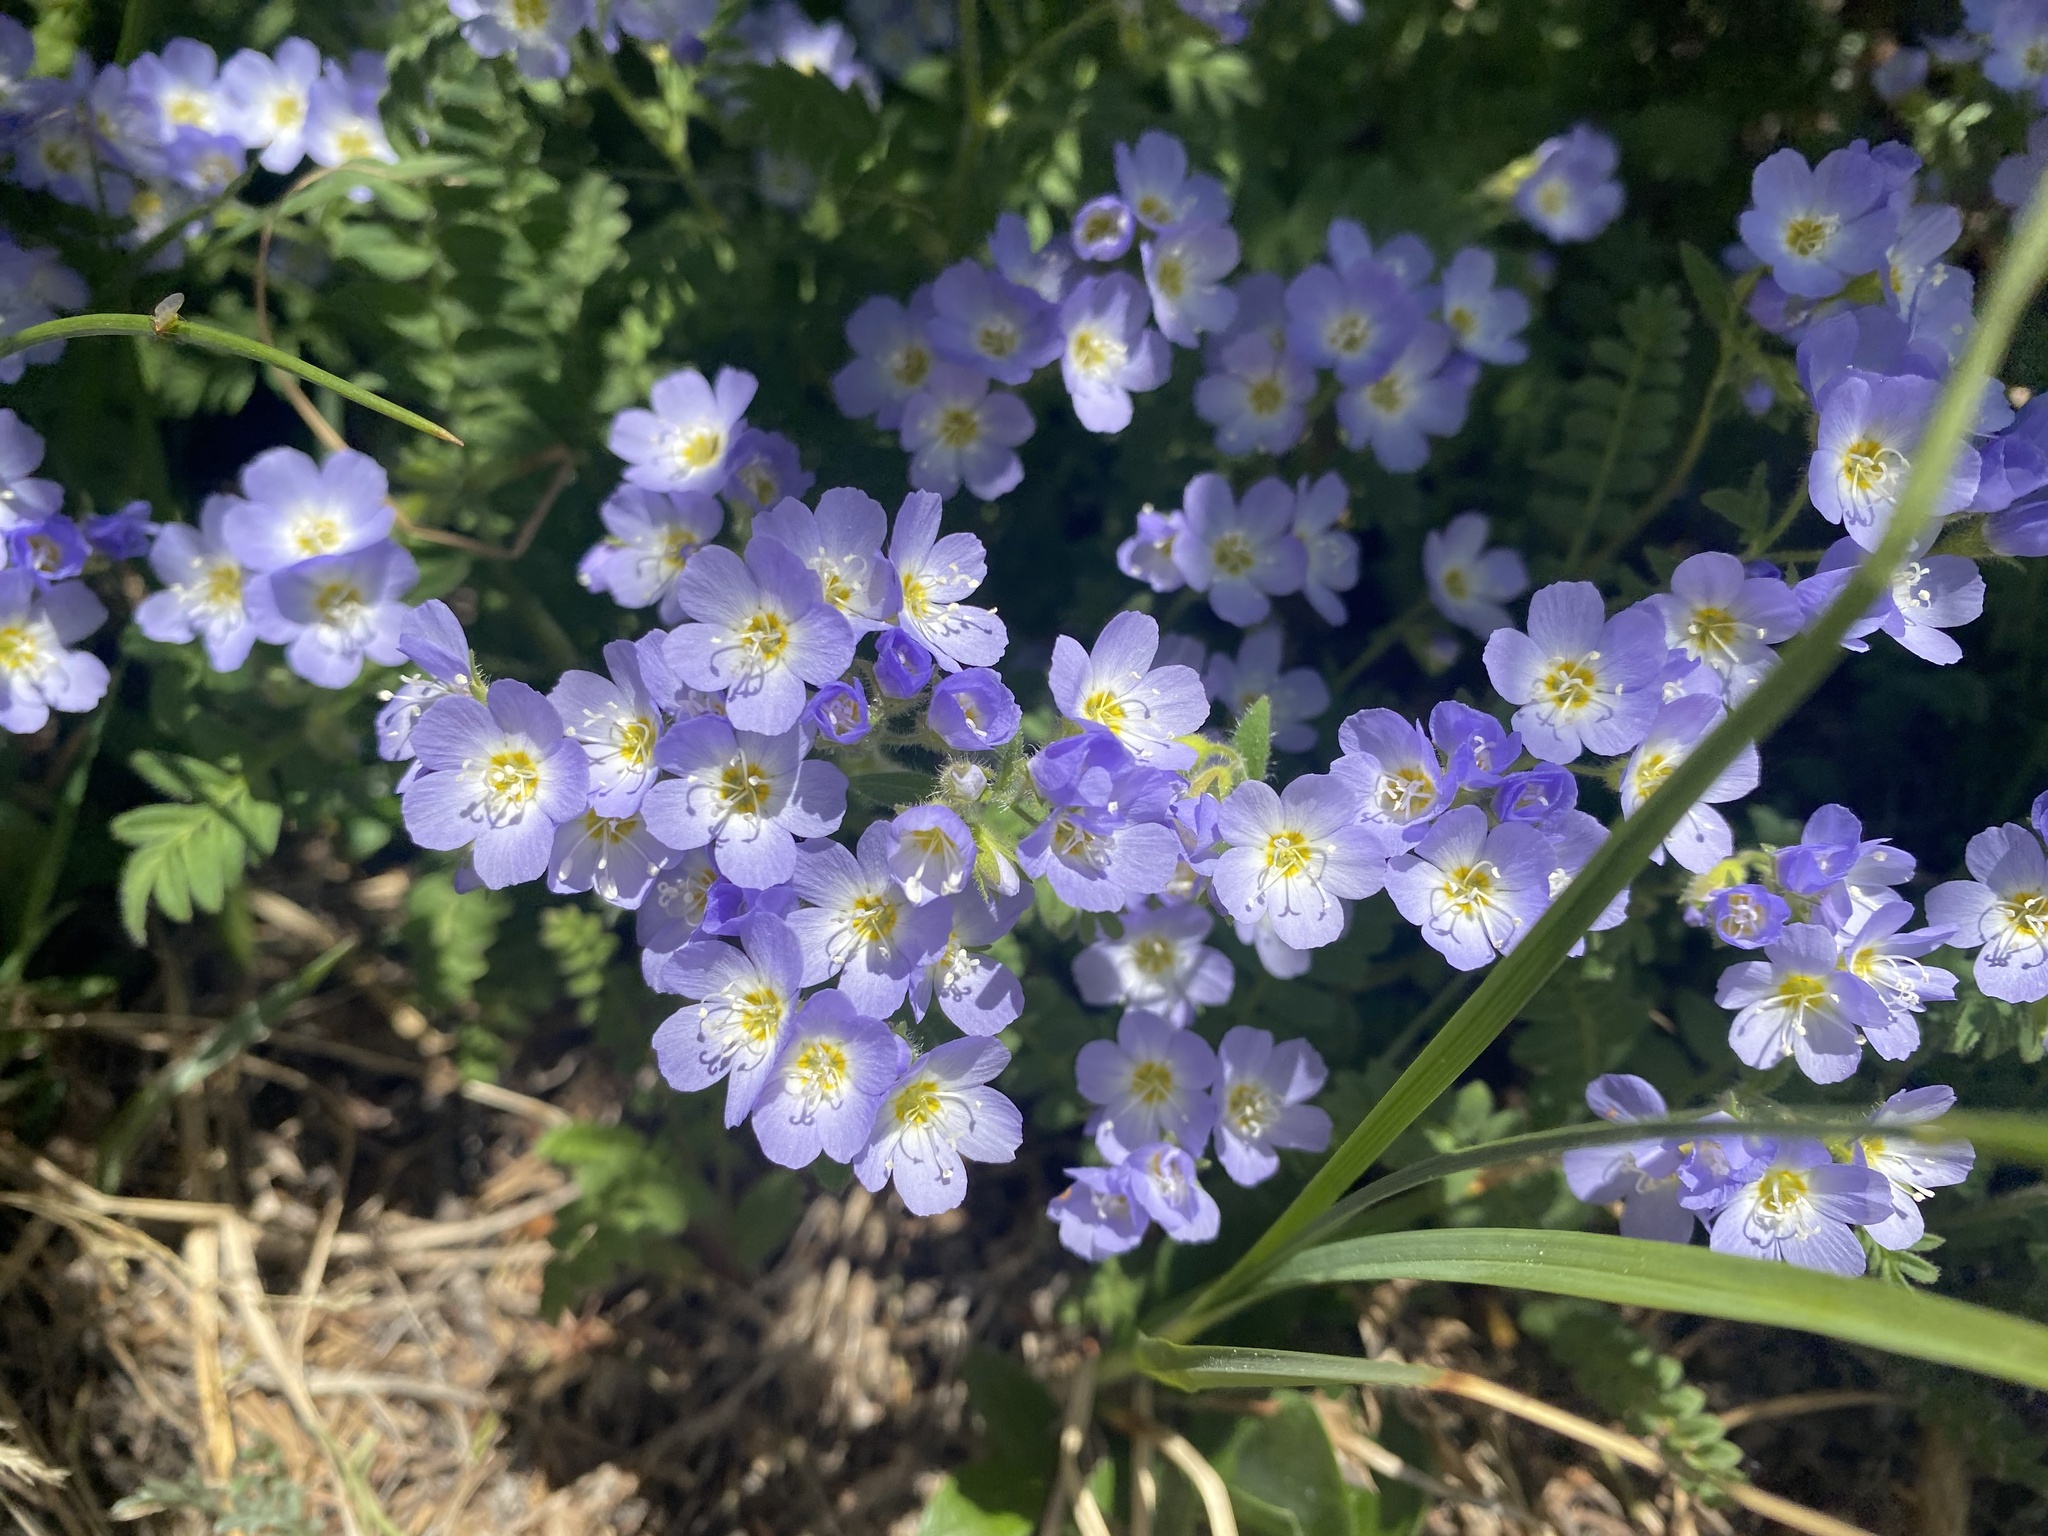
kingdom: Plantae
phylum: Tracheophyta
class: Magnoliopsida
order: Ericales
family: Polemoniaceae
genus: Polemonium
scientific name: Polemonium pulcherrimum
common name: Short jacob's-ladder
